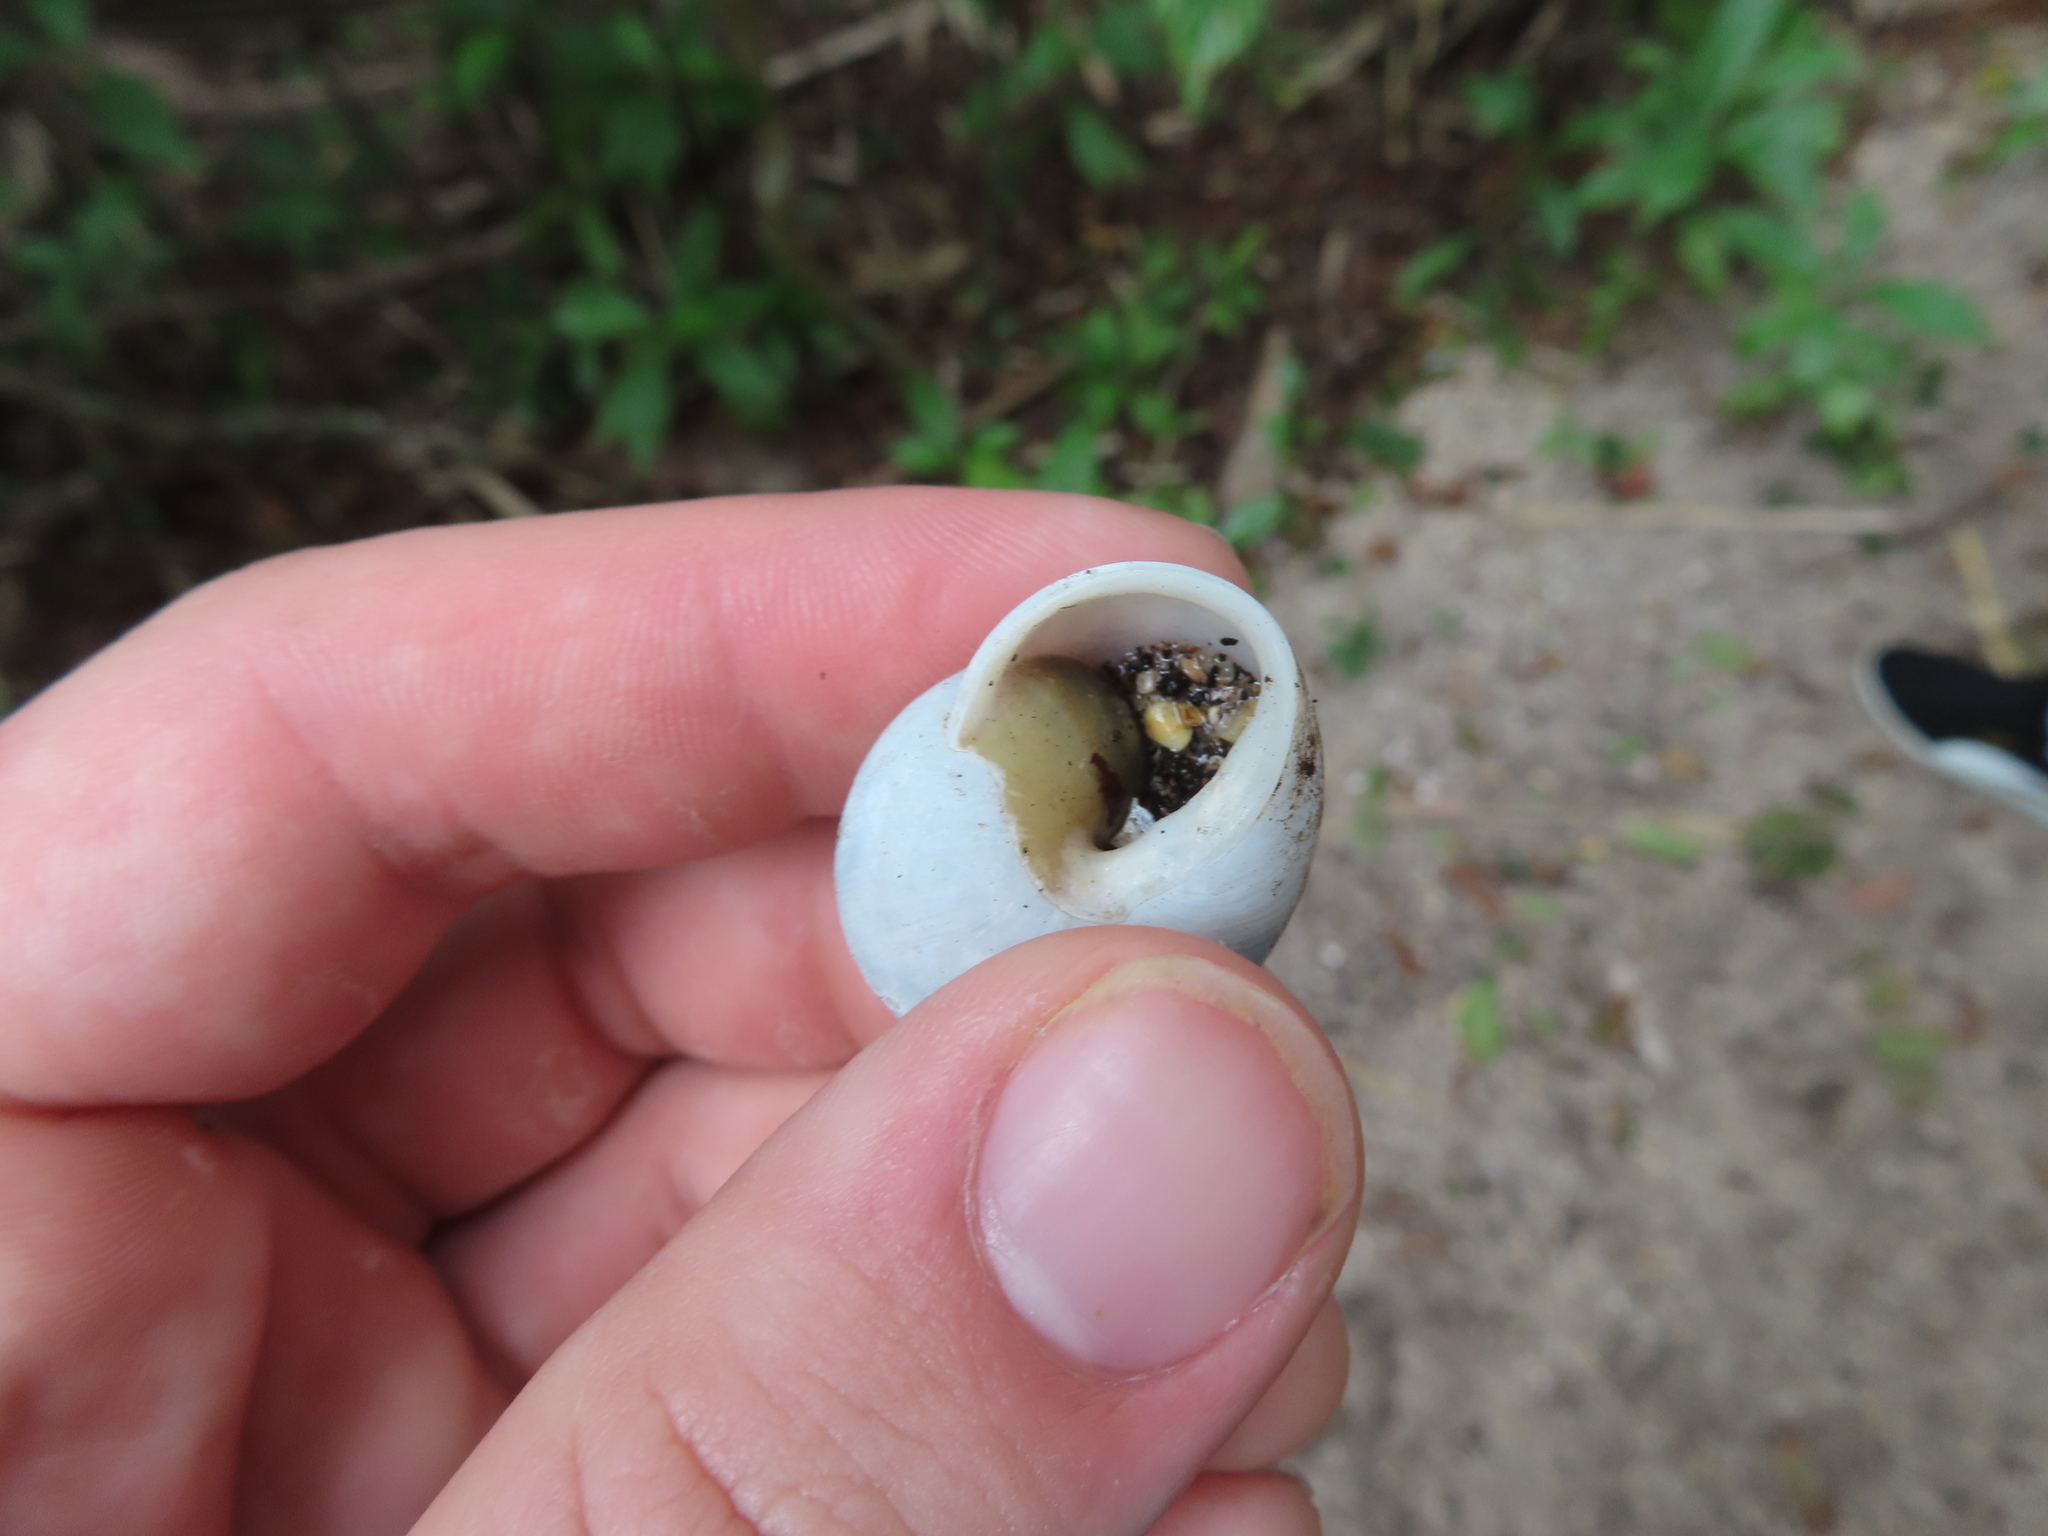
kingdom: Animalia
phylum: Mollusca
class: Gastropoda
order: Stylommatophora
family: Zachrysiidae
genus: Zachrysia
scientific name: Zachrysia provisoria
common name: Garden zachrysia
